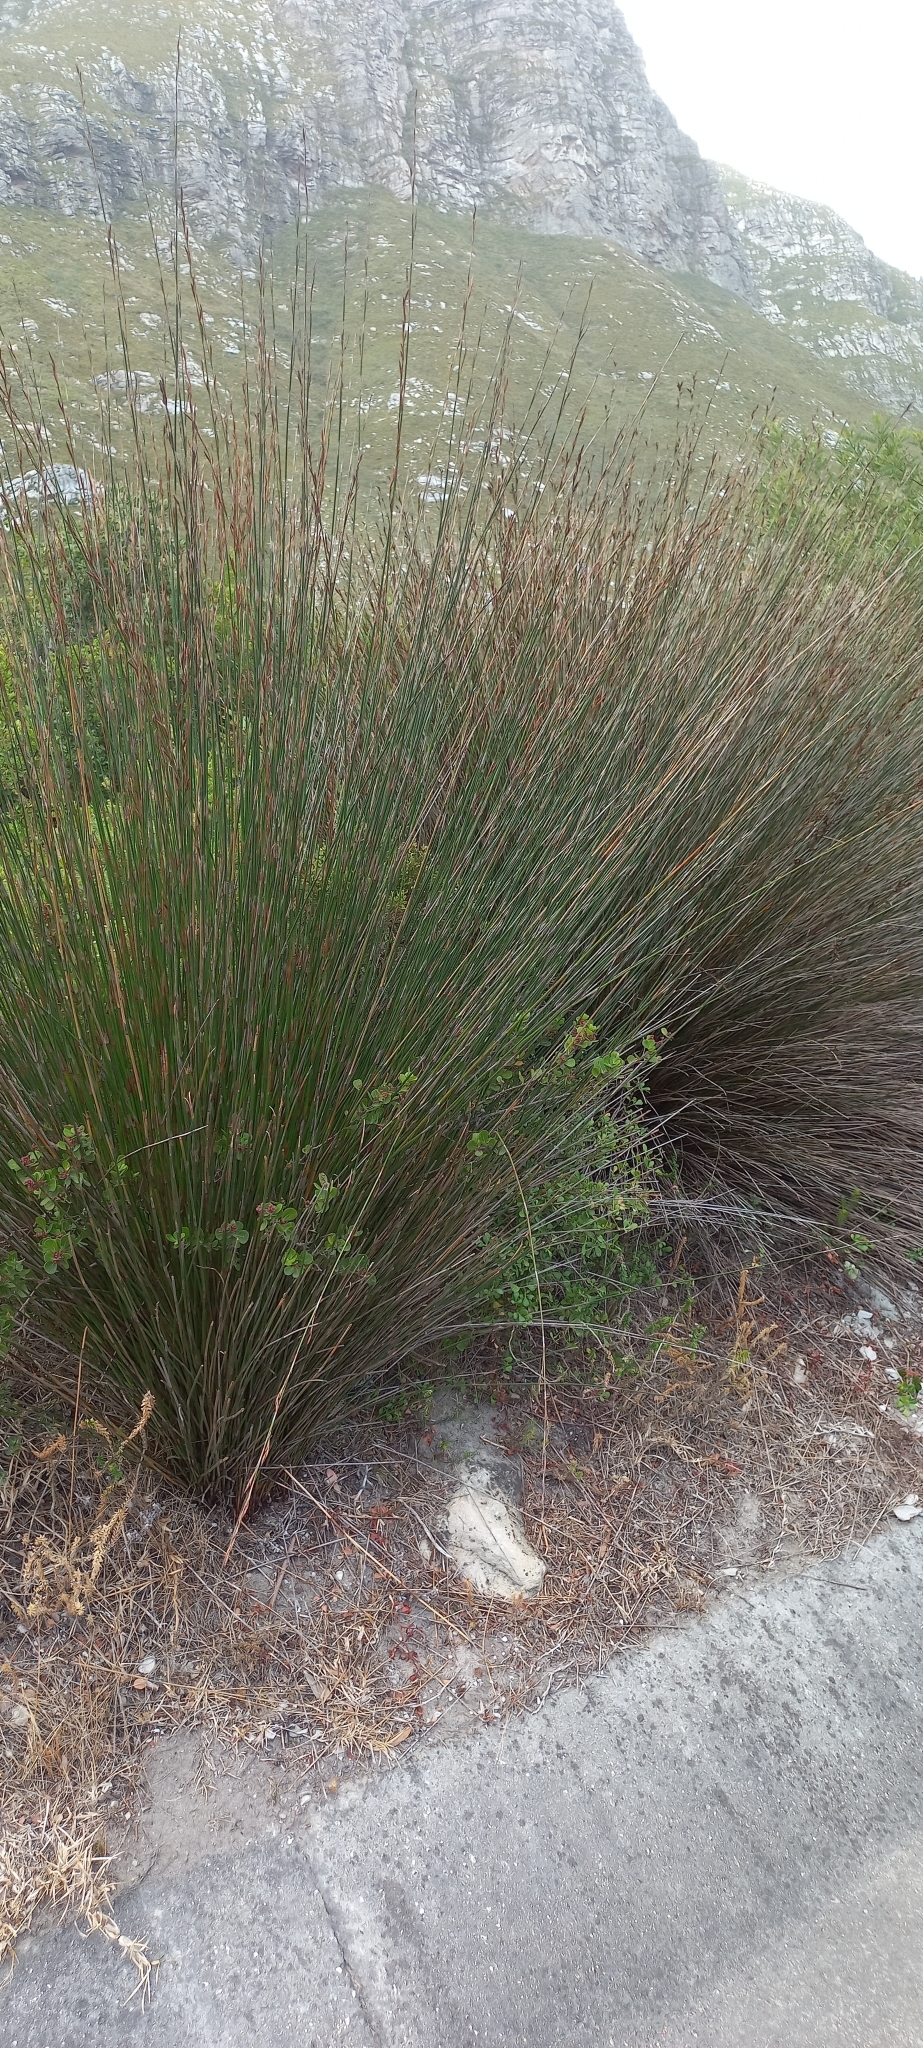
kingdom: Plantae
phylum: Tracheophyta
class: Liliopsida
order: Poales
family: Restionaceae
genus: Thamnochortus
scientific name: Thamnochortus insignis
